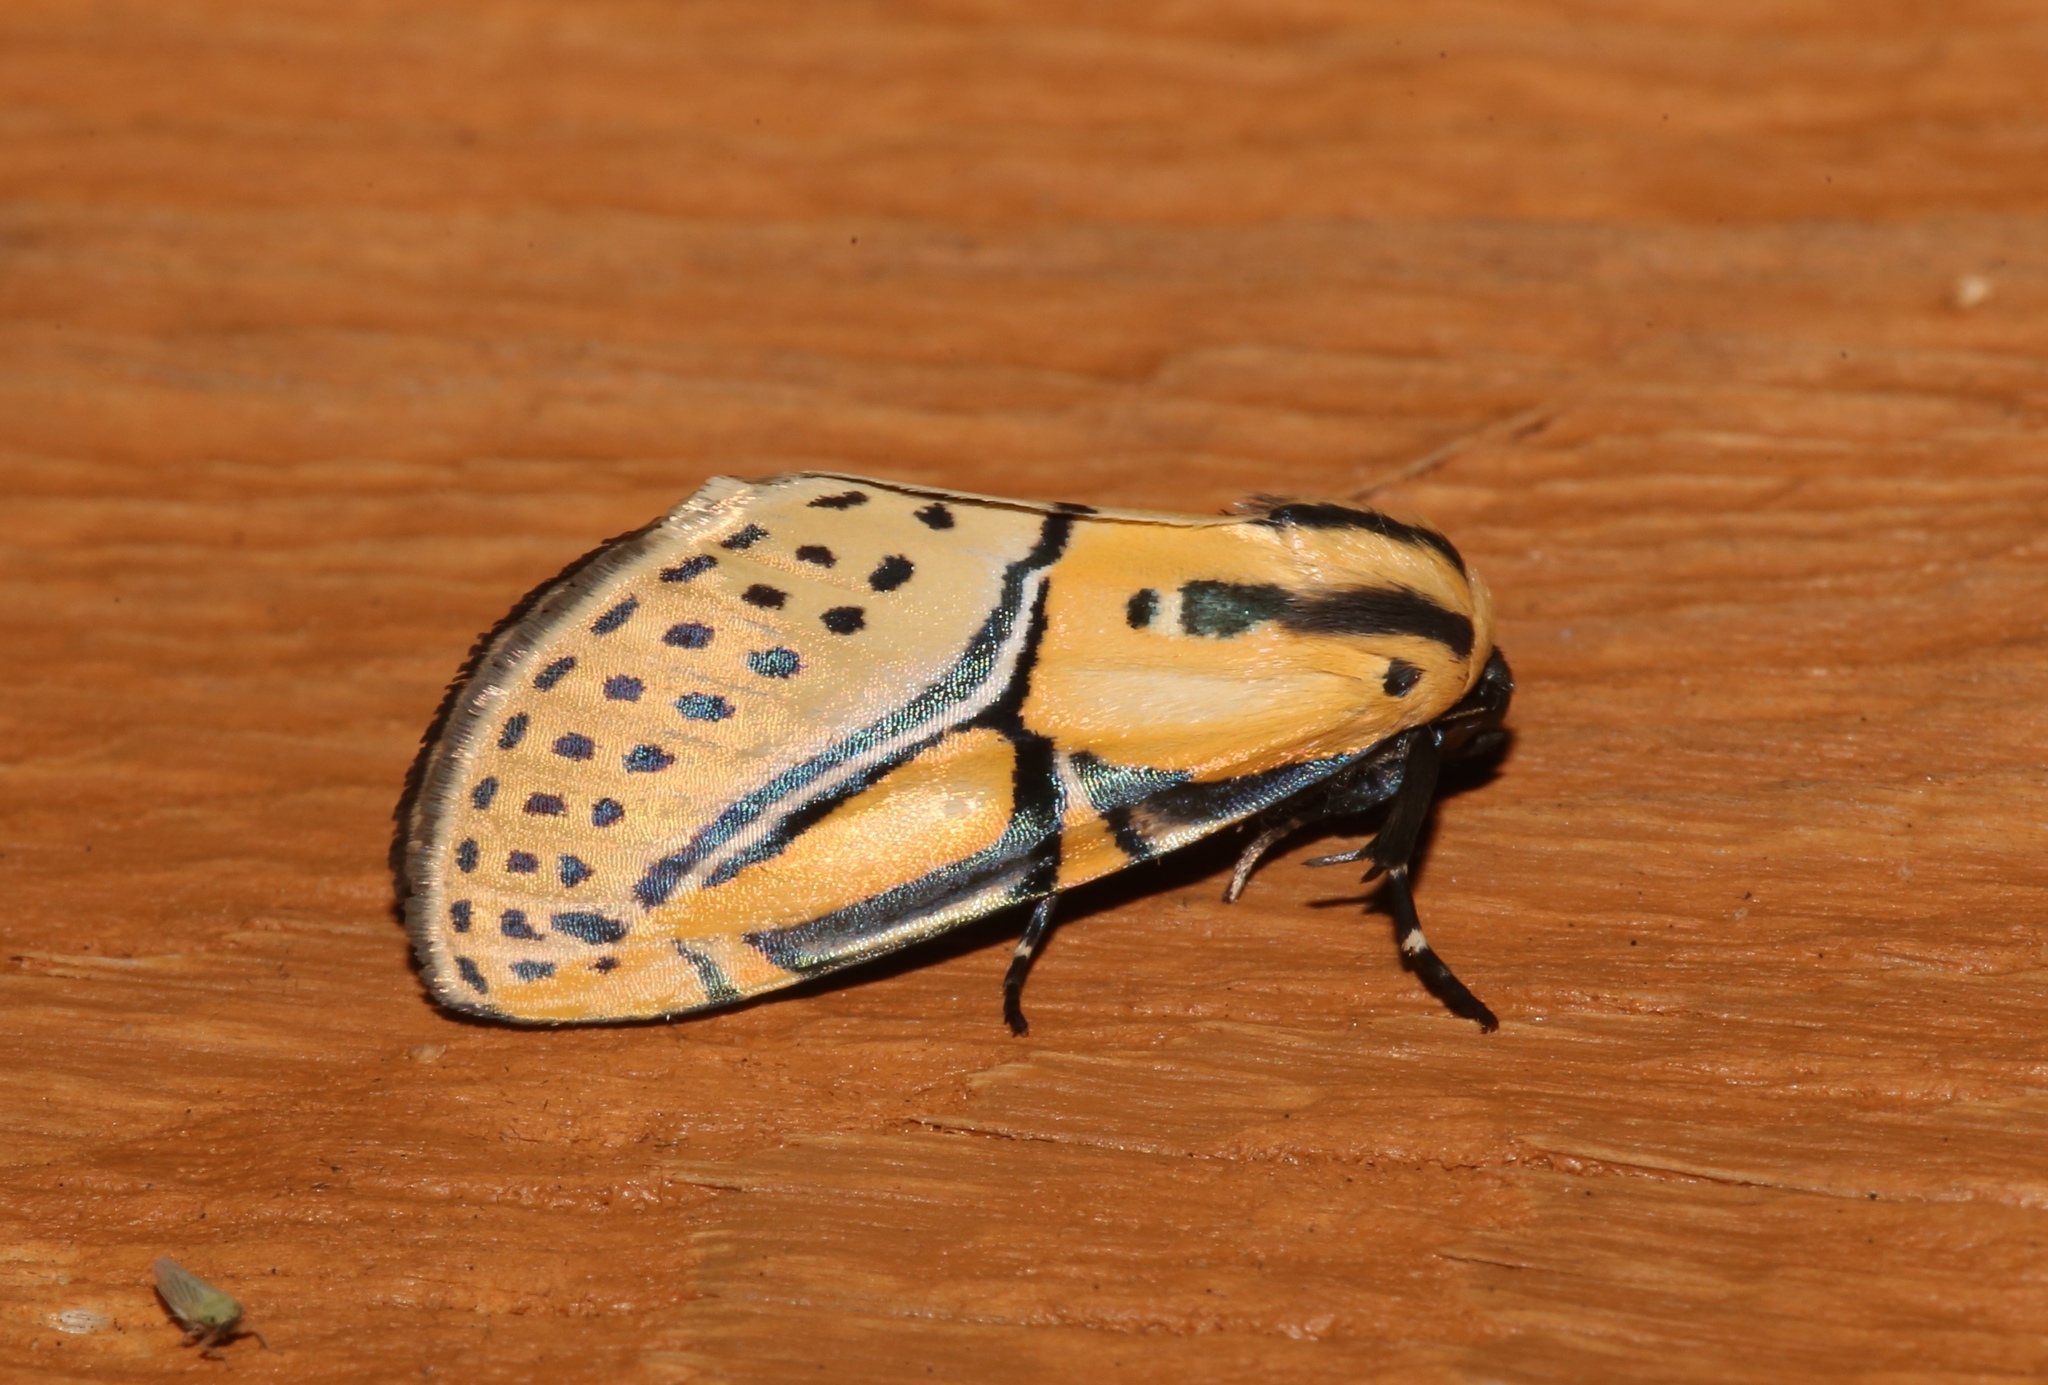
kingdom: Animalia
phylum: Arthropoda
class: Insecta
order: Lepidoptera
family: Erebidae
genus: Diphthera
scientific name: Diphthera festiva
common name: Hieroglyphic moth
